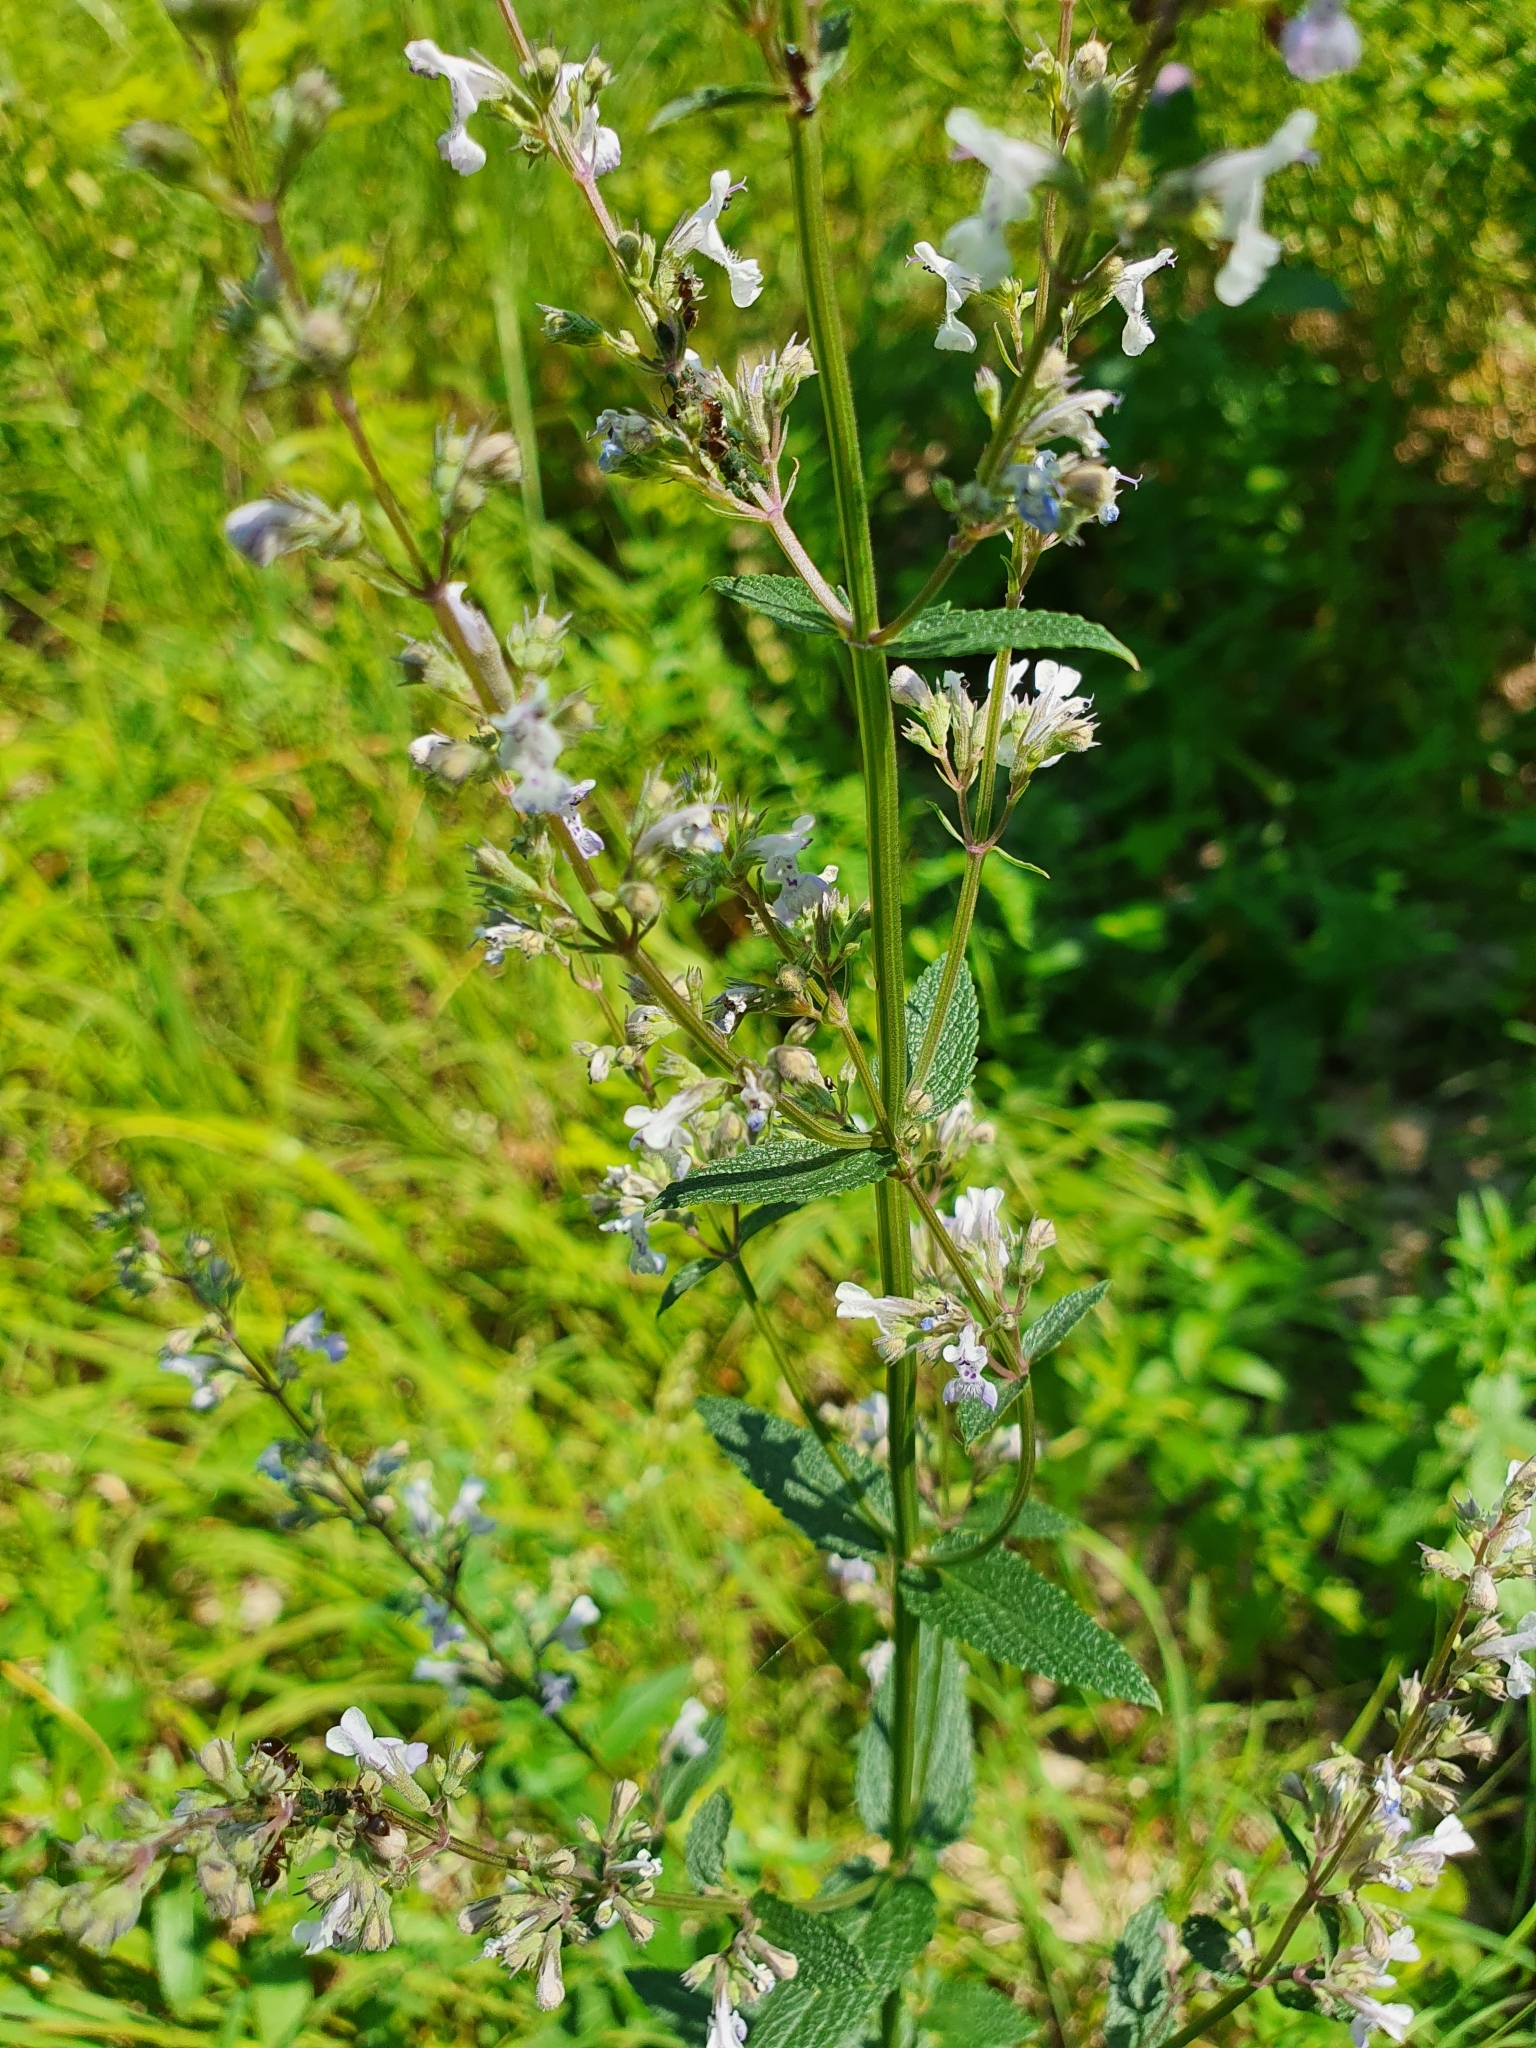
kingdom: Plantae
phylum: Tracheophyta
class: Magnoliopsida
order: Lamiales
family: Lamiaceae
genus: Nepeta
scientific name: Nepeta nuda
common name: Hairless catmint
